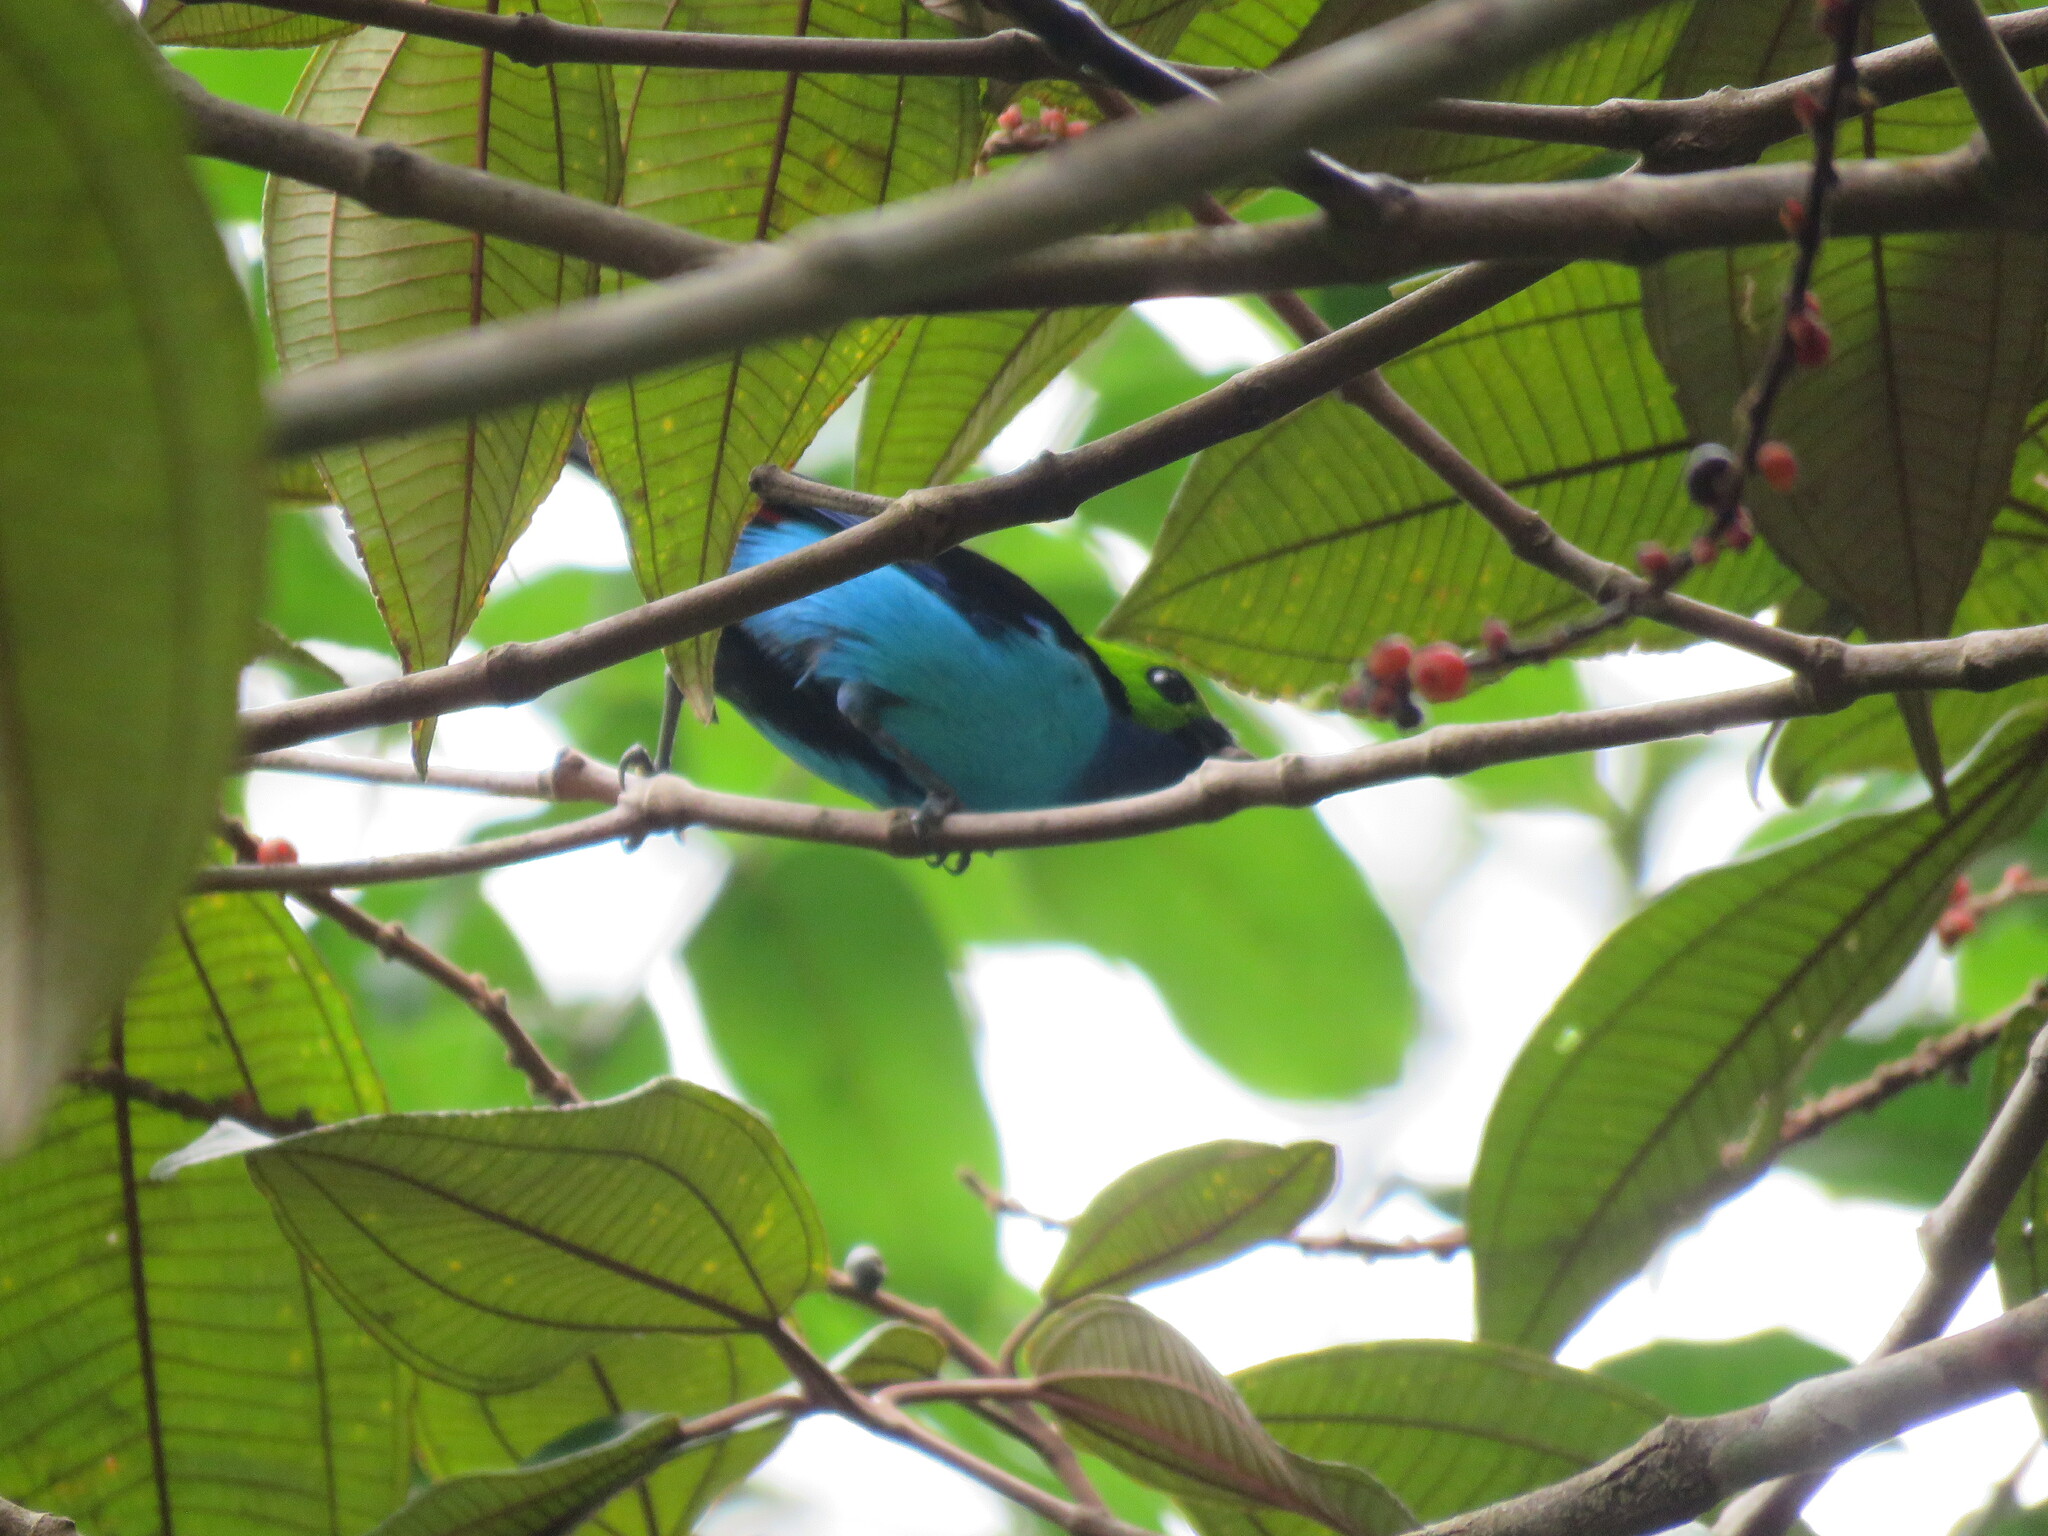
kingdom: Animalia
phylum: Chordata
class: Aves
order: Passeriformes
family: Thraupidae
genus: Tangara
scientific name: Tangara chilensis
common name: Paradise tanager
